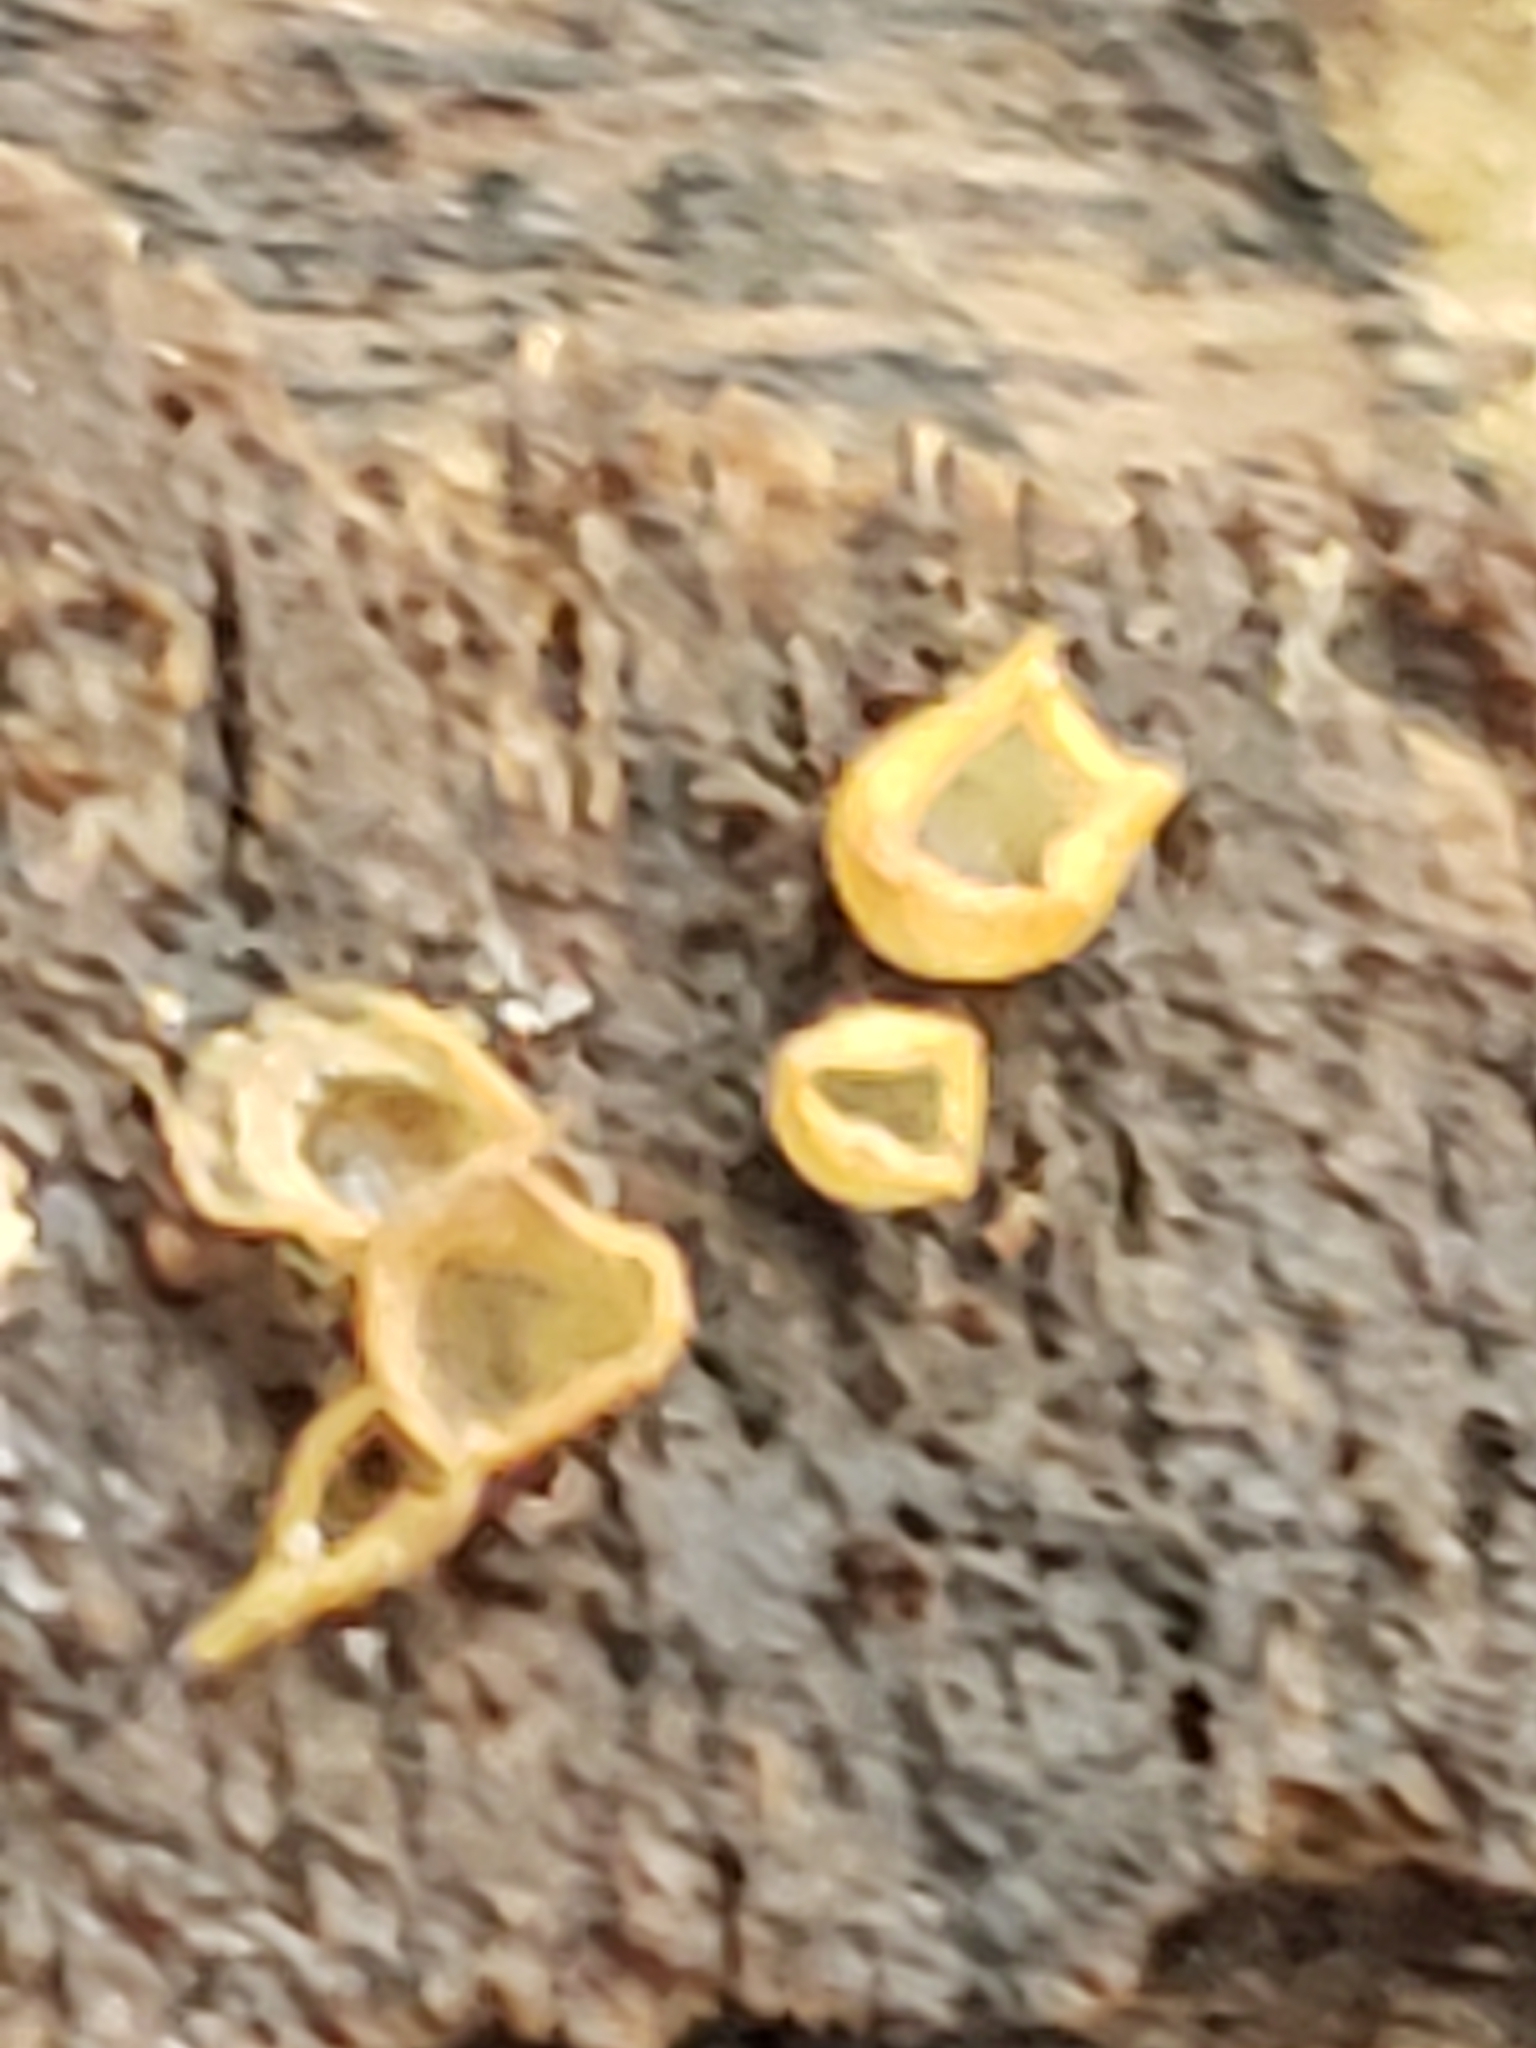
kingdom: Fungi
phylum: Ascomycota
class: Orbiliomycetes
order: Orbiliales
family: Orbiliaceae
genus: Orbilia
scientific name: Orbilia
